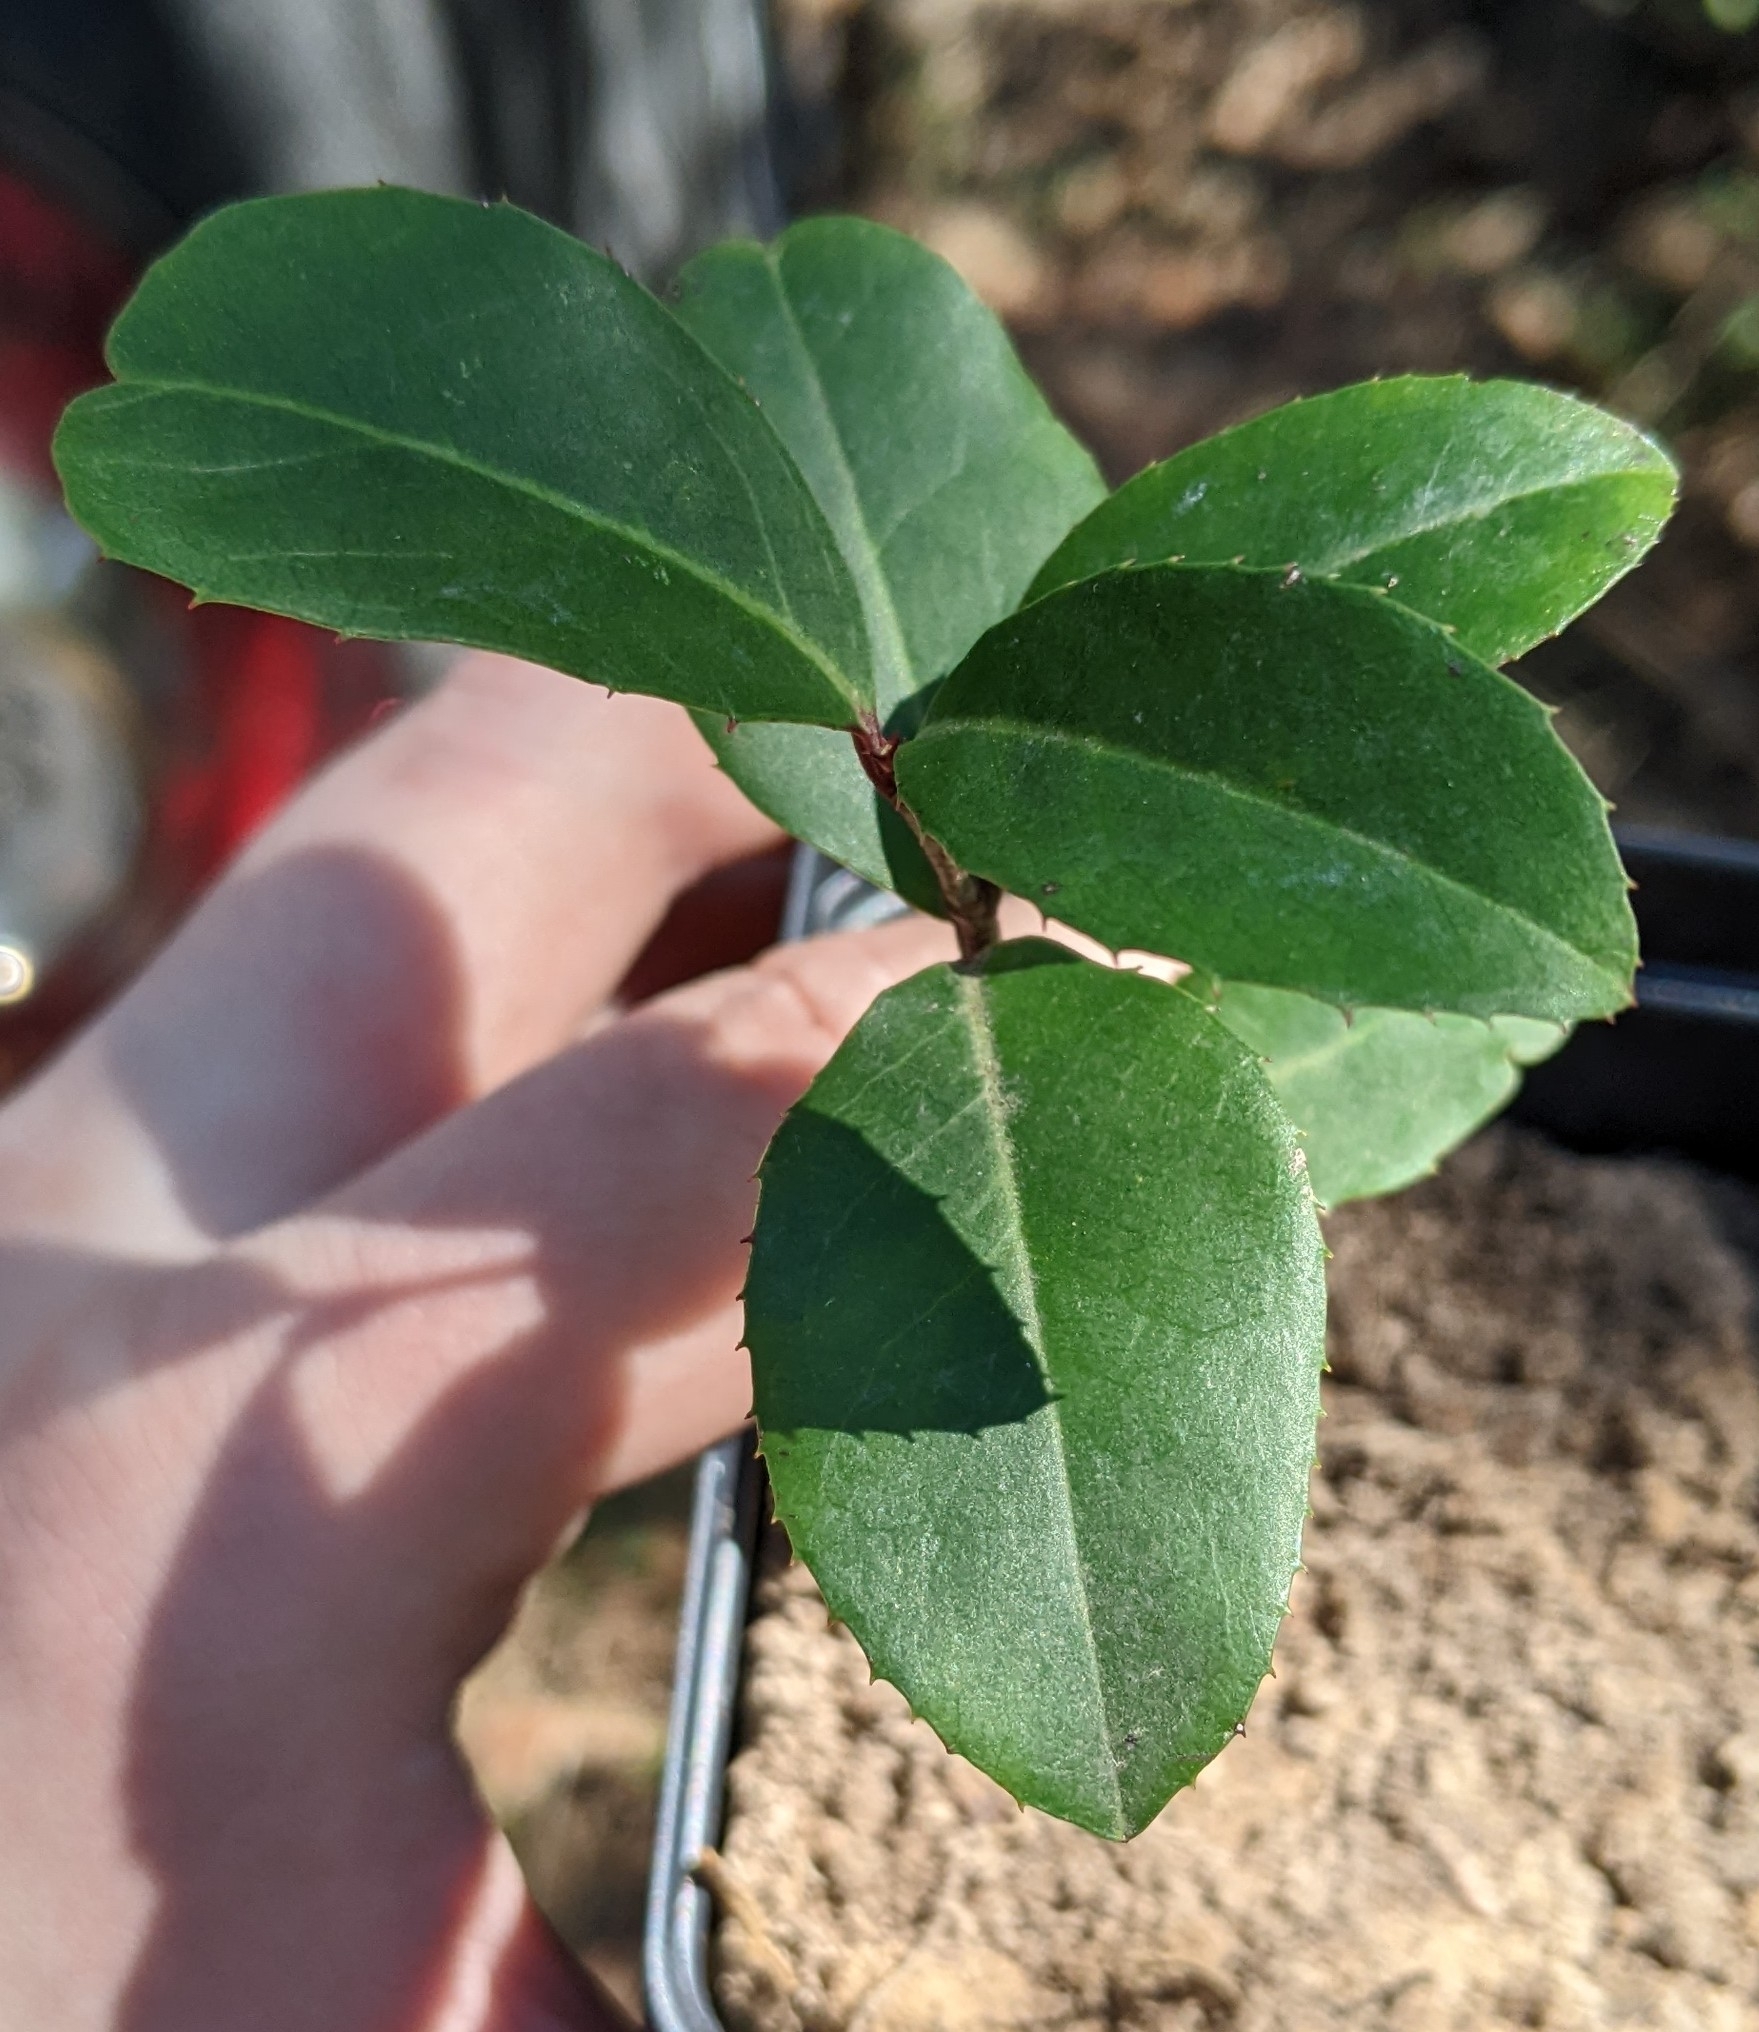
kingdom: Plantae
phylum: Tracheophyta
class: Magnoliopsida
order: Rosales
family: Rosaceae
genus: Prunus
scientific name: Prunus caroliniana
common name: Carolina laurel cherry
